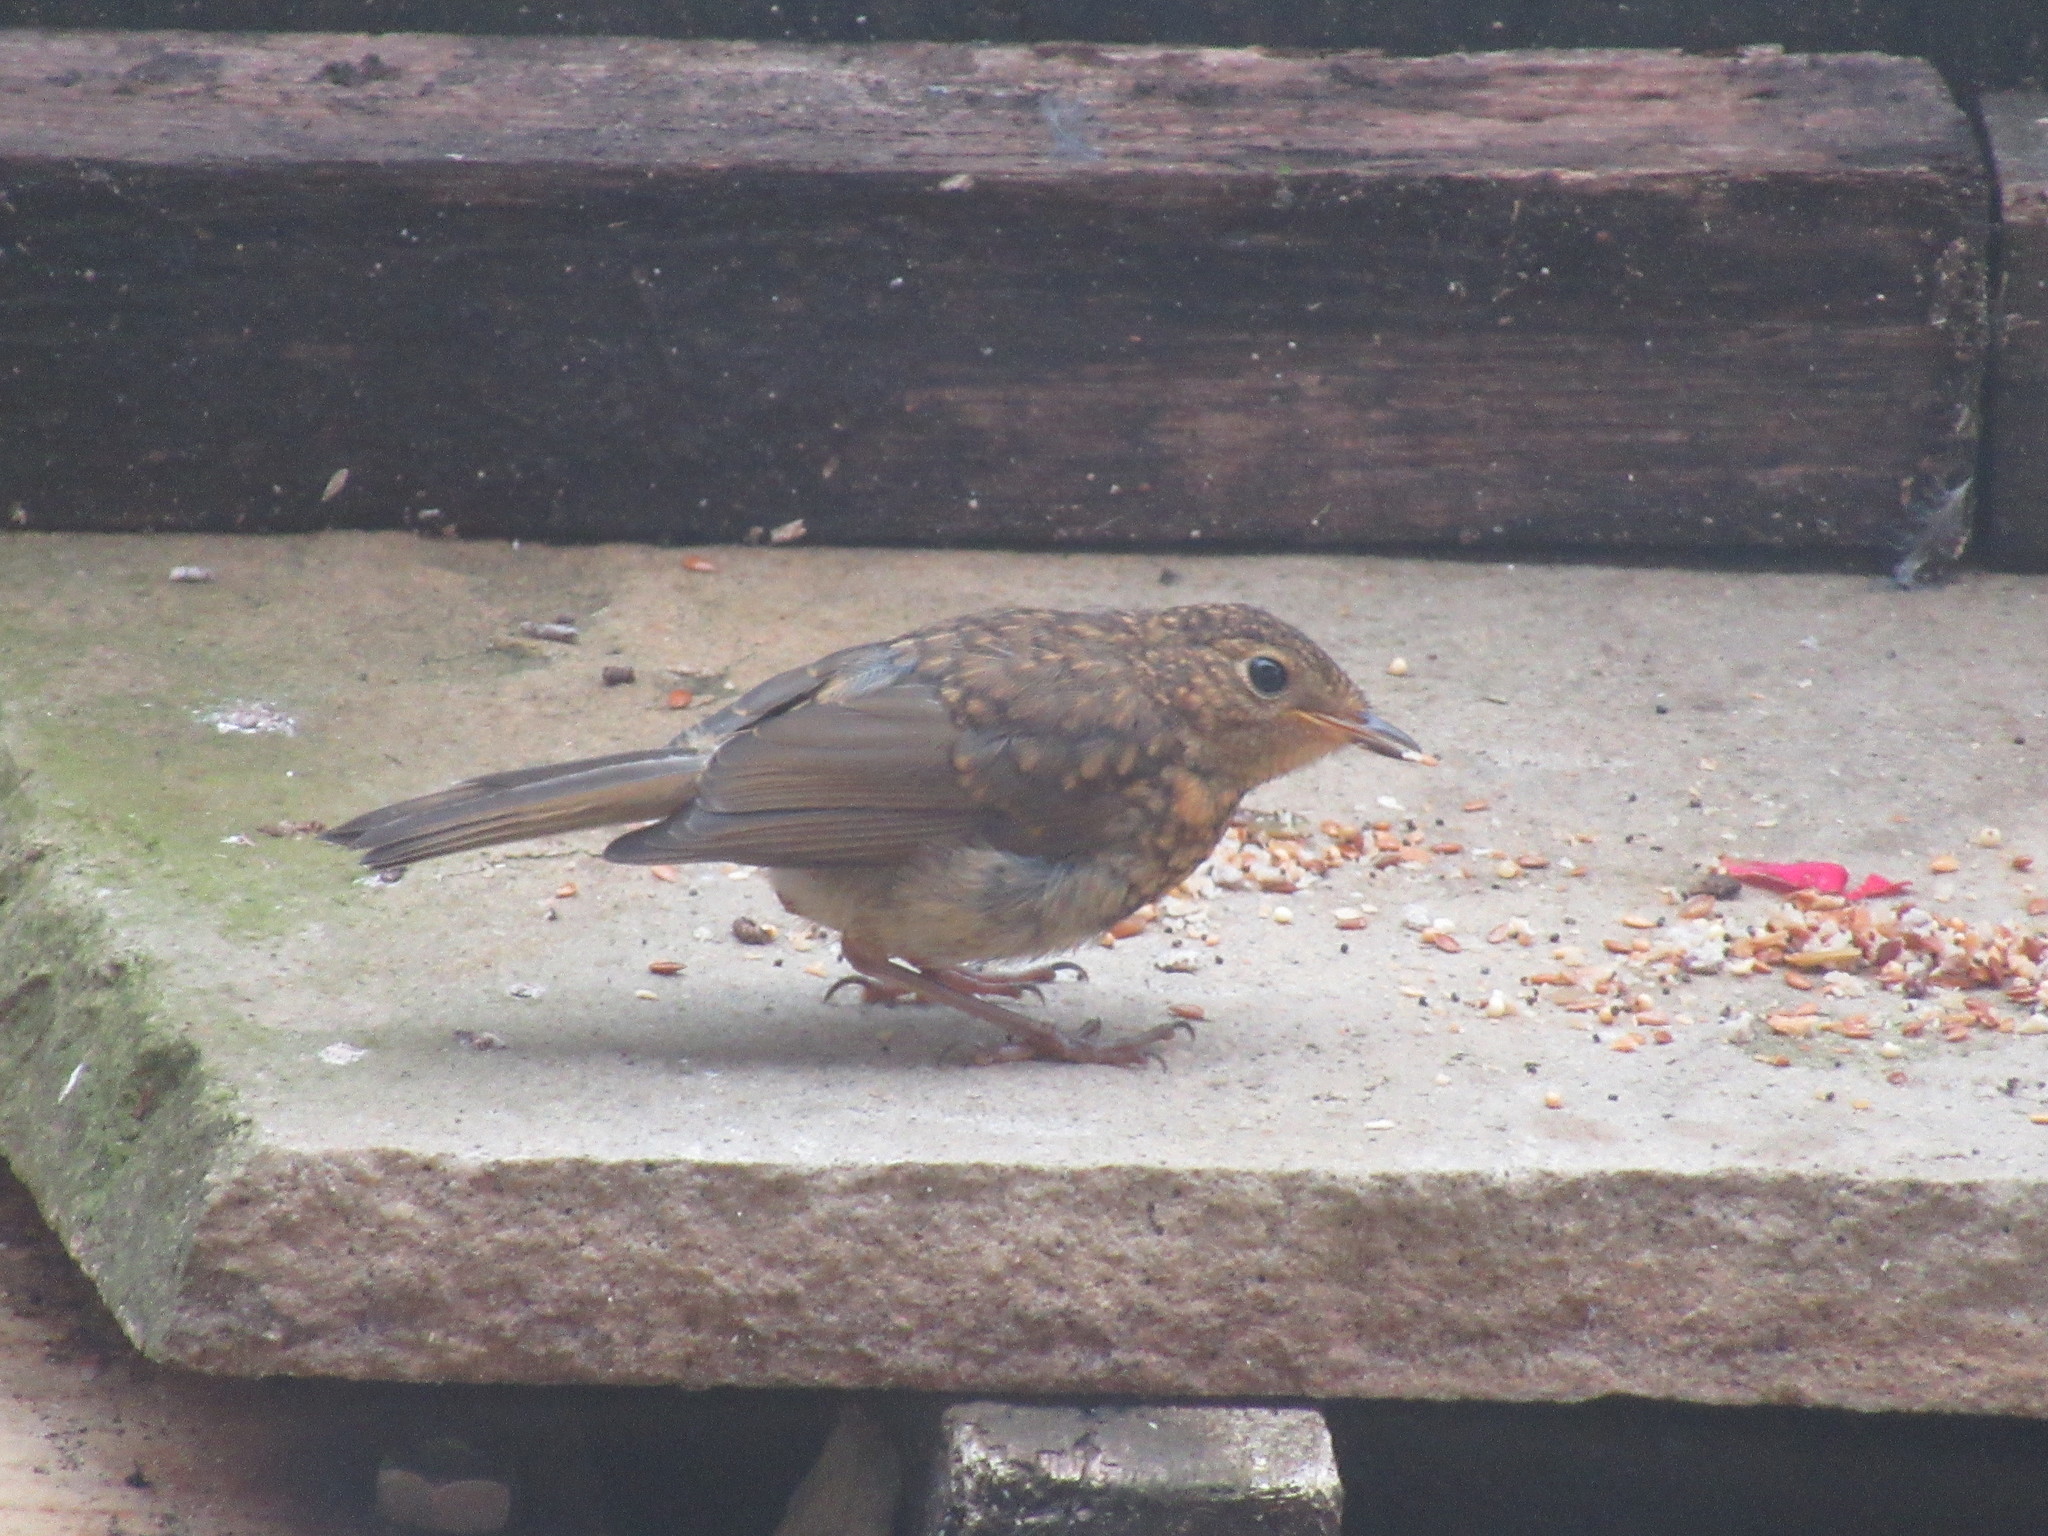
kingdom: Animalia
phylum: Chordata
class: Aves
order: Passeriformes
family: Muscicapidae
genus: Erithacus
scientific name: Erithacus rubecula
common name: European robin
